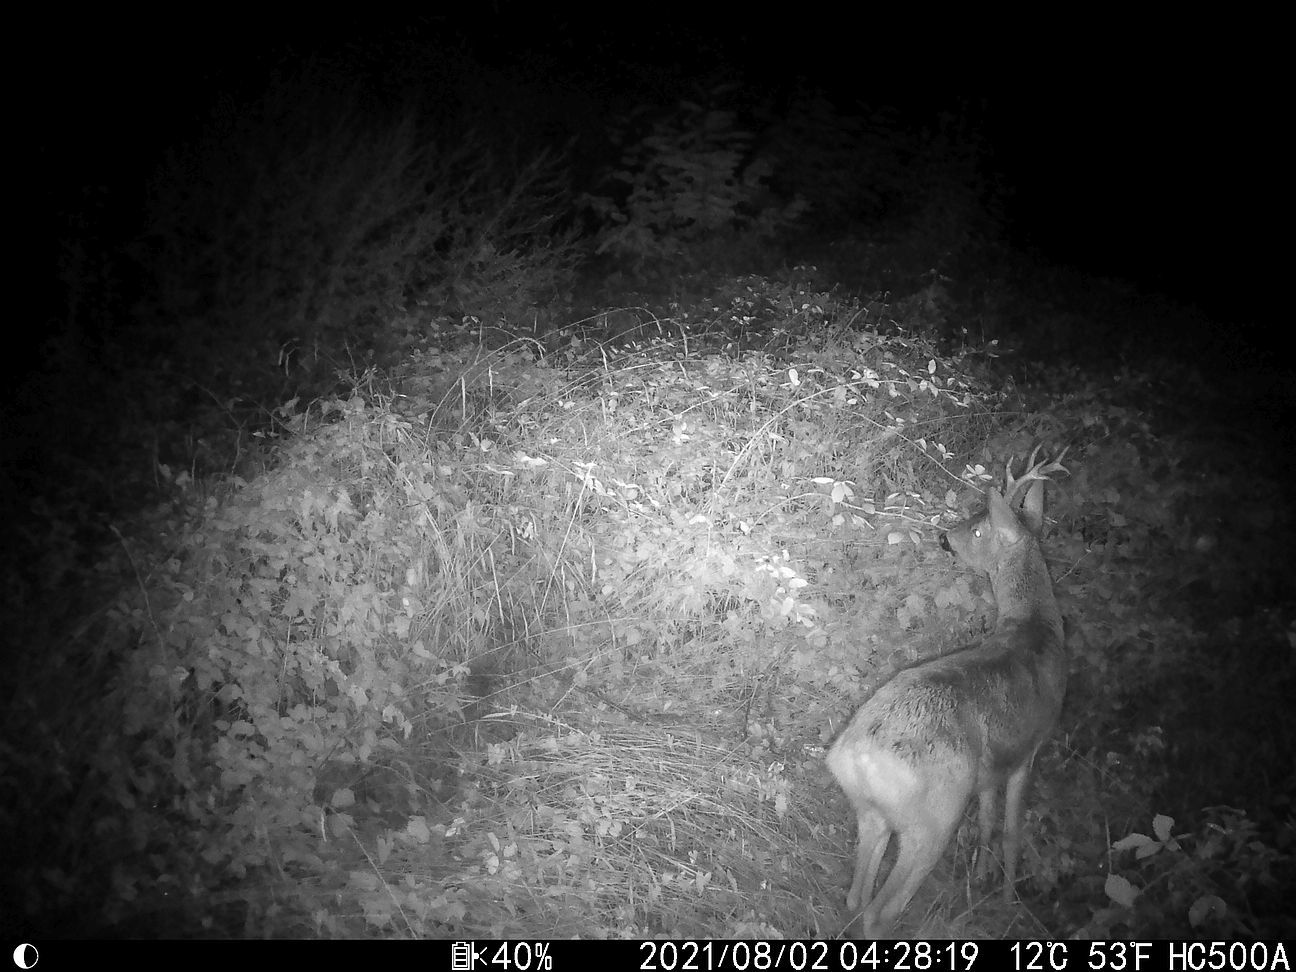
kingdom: Animalia
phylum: Chordata
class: Mammalia
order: Artiodactyla
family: Cervidae
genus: Capreolus
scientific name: Capreolus capreolus
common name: Western roe deer
